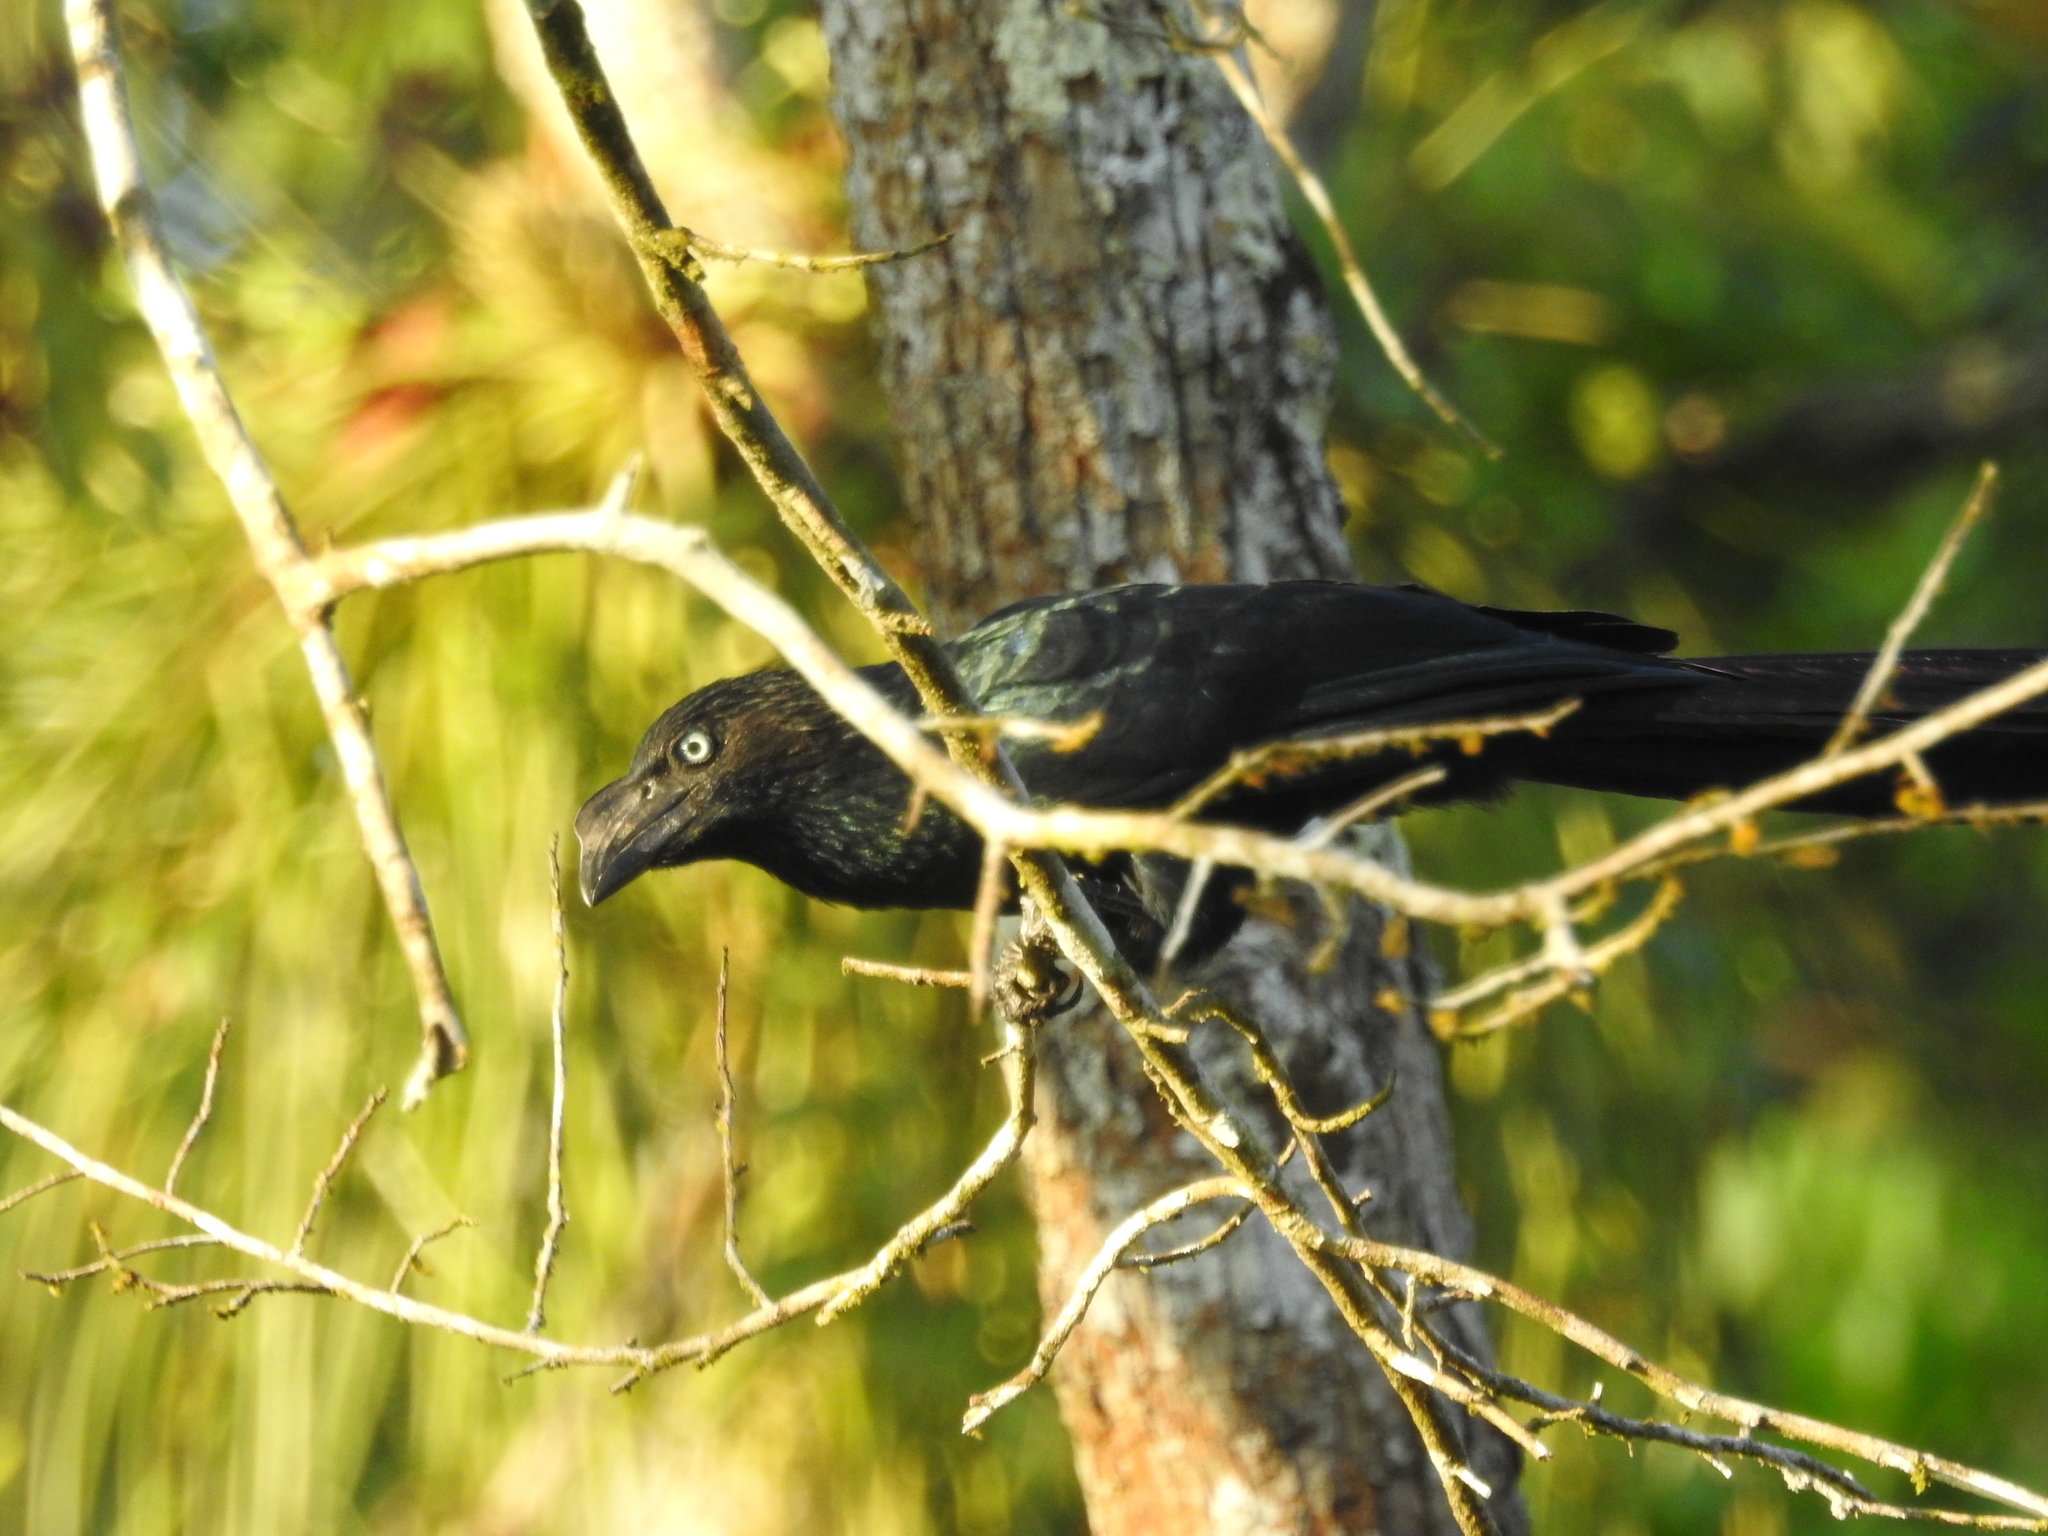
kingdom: Animalia
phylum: Chordata
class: Aves
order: Cuculiformes
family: Cuculidae
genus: Crotophaga
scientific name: Crotophaga major
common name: Greater ani
